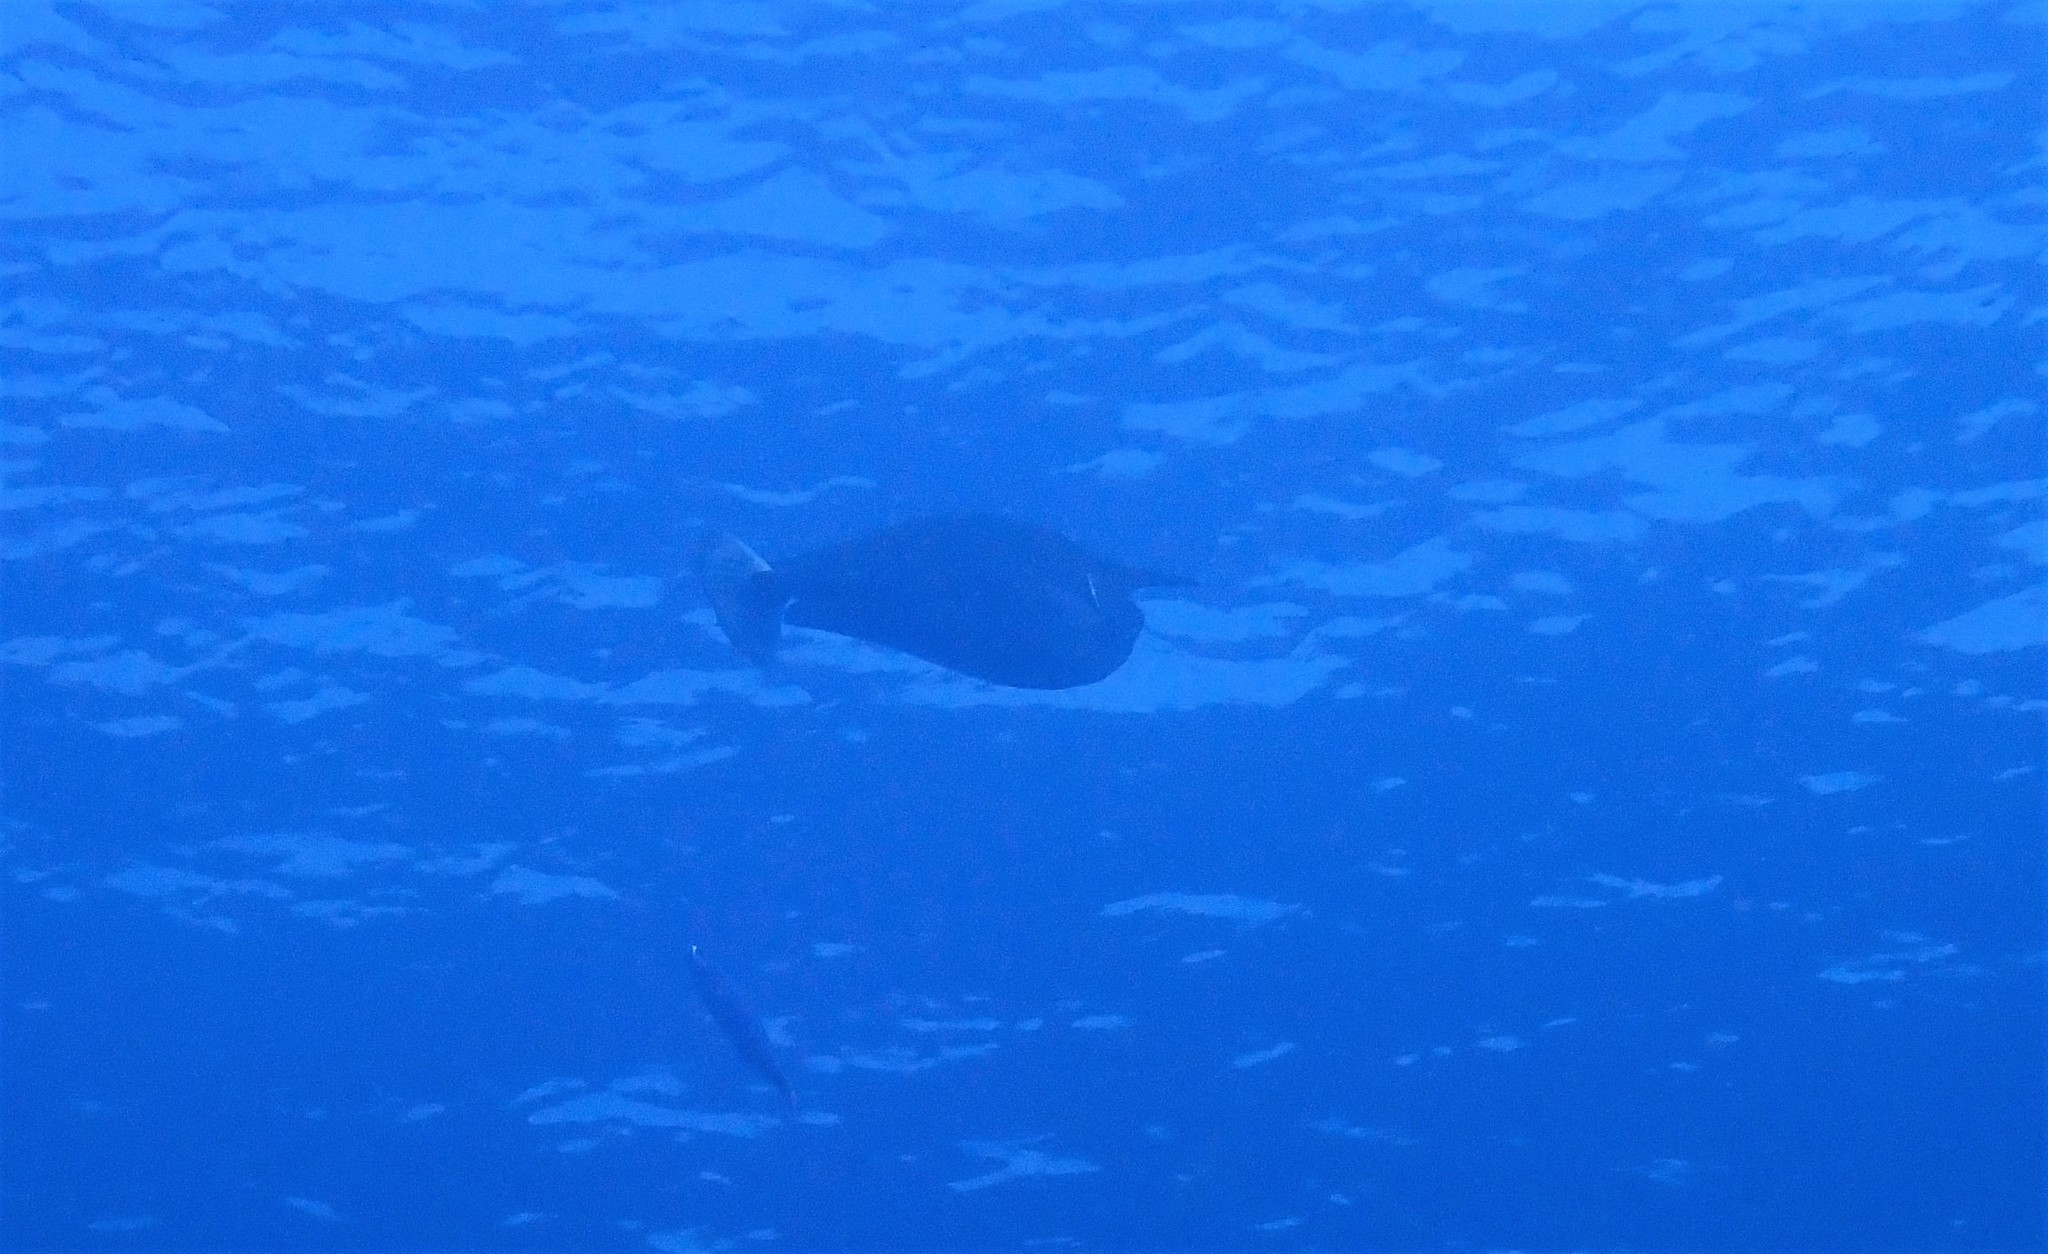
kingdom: Animalia
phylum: Chordata
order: Perciformes
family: Acanthuridae
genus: Naso
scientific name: Naso brevirostris
